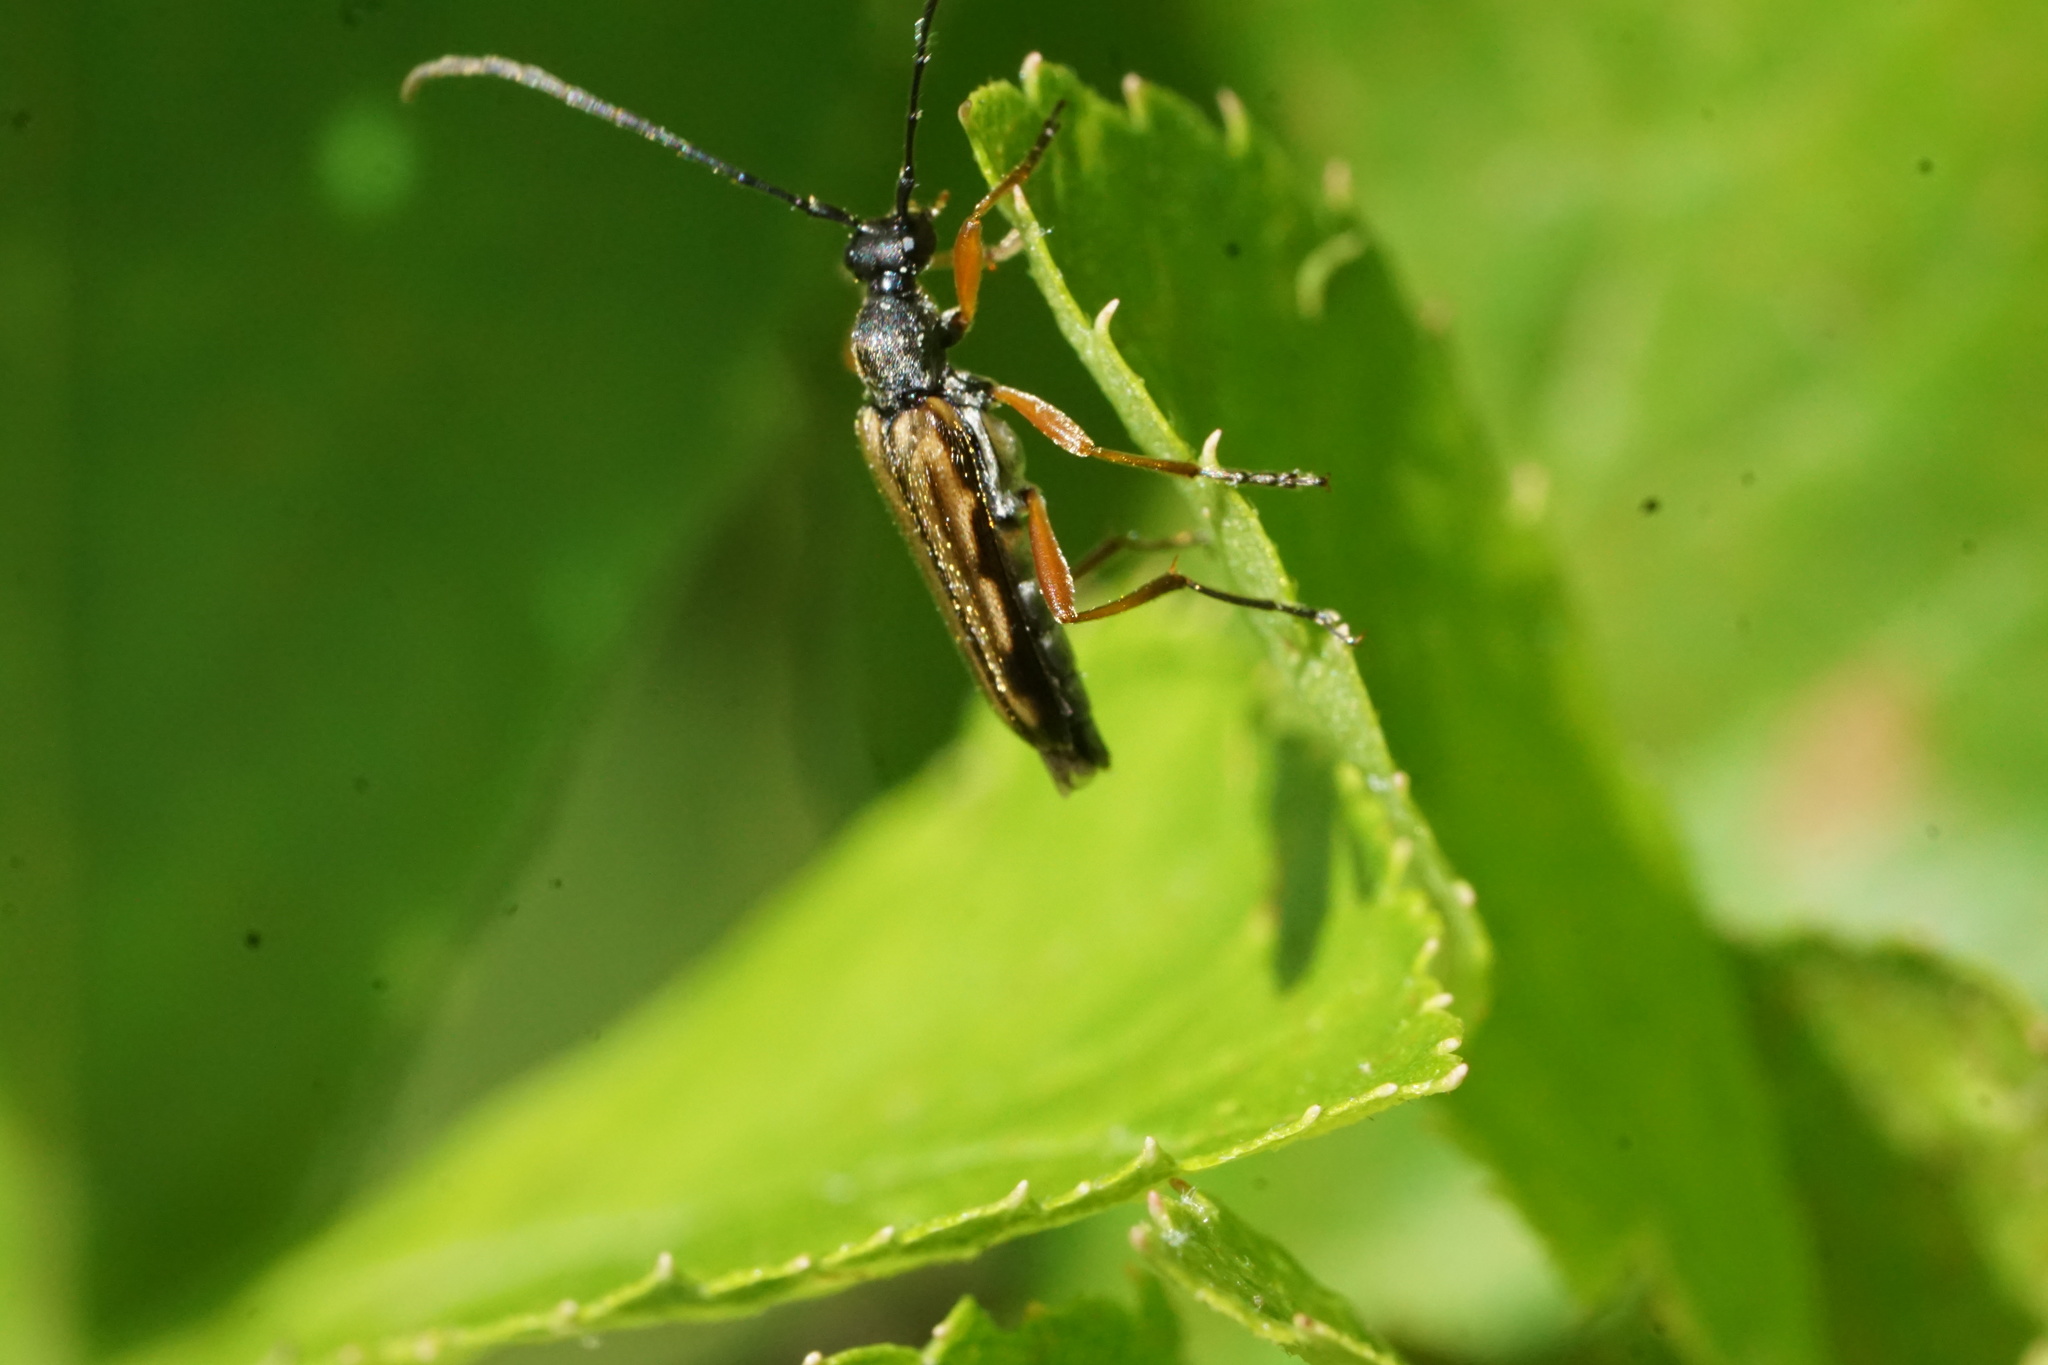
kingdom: Animalia
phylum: Arthropoda
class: Insecta
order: Coleoptera
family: Cerambycidae
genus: Analeptura
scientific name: Analeptura lineola
